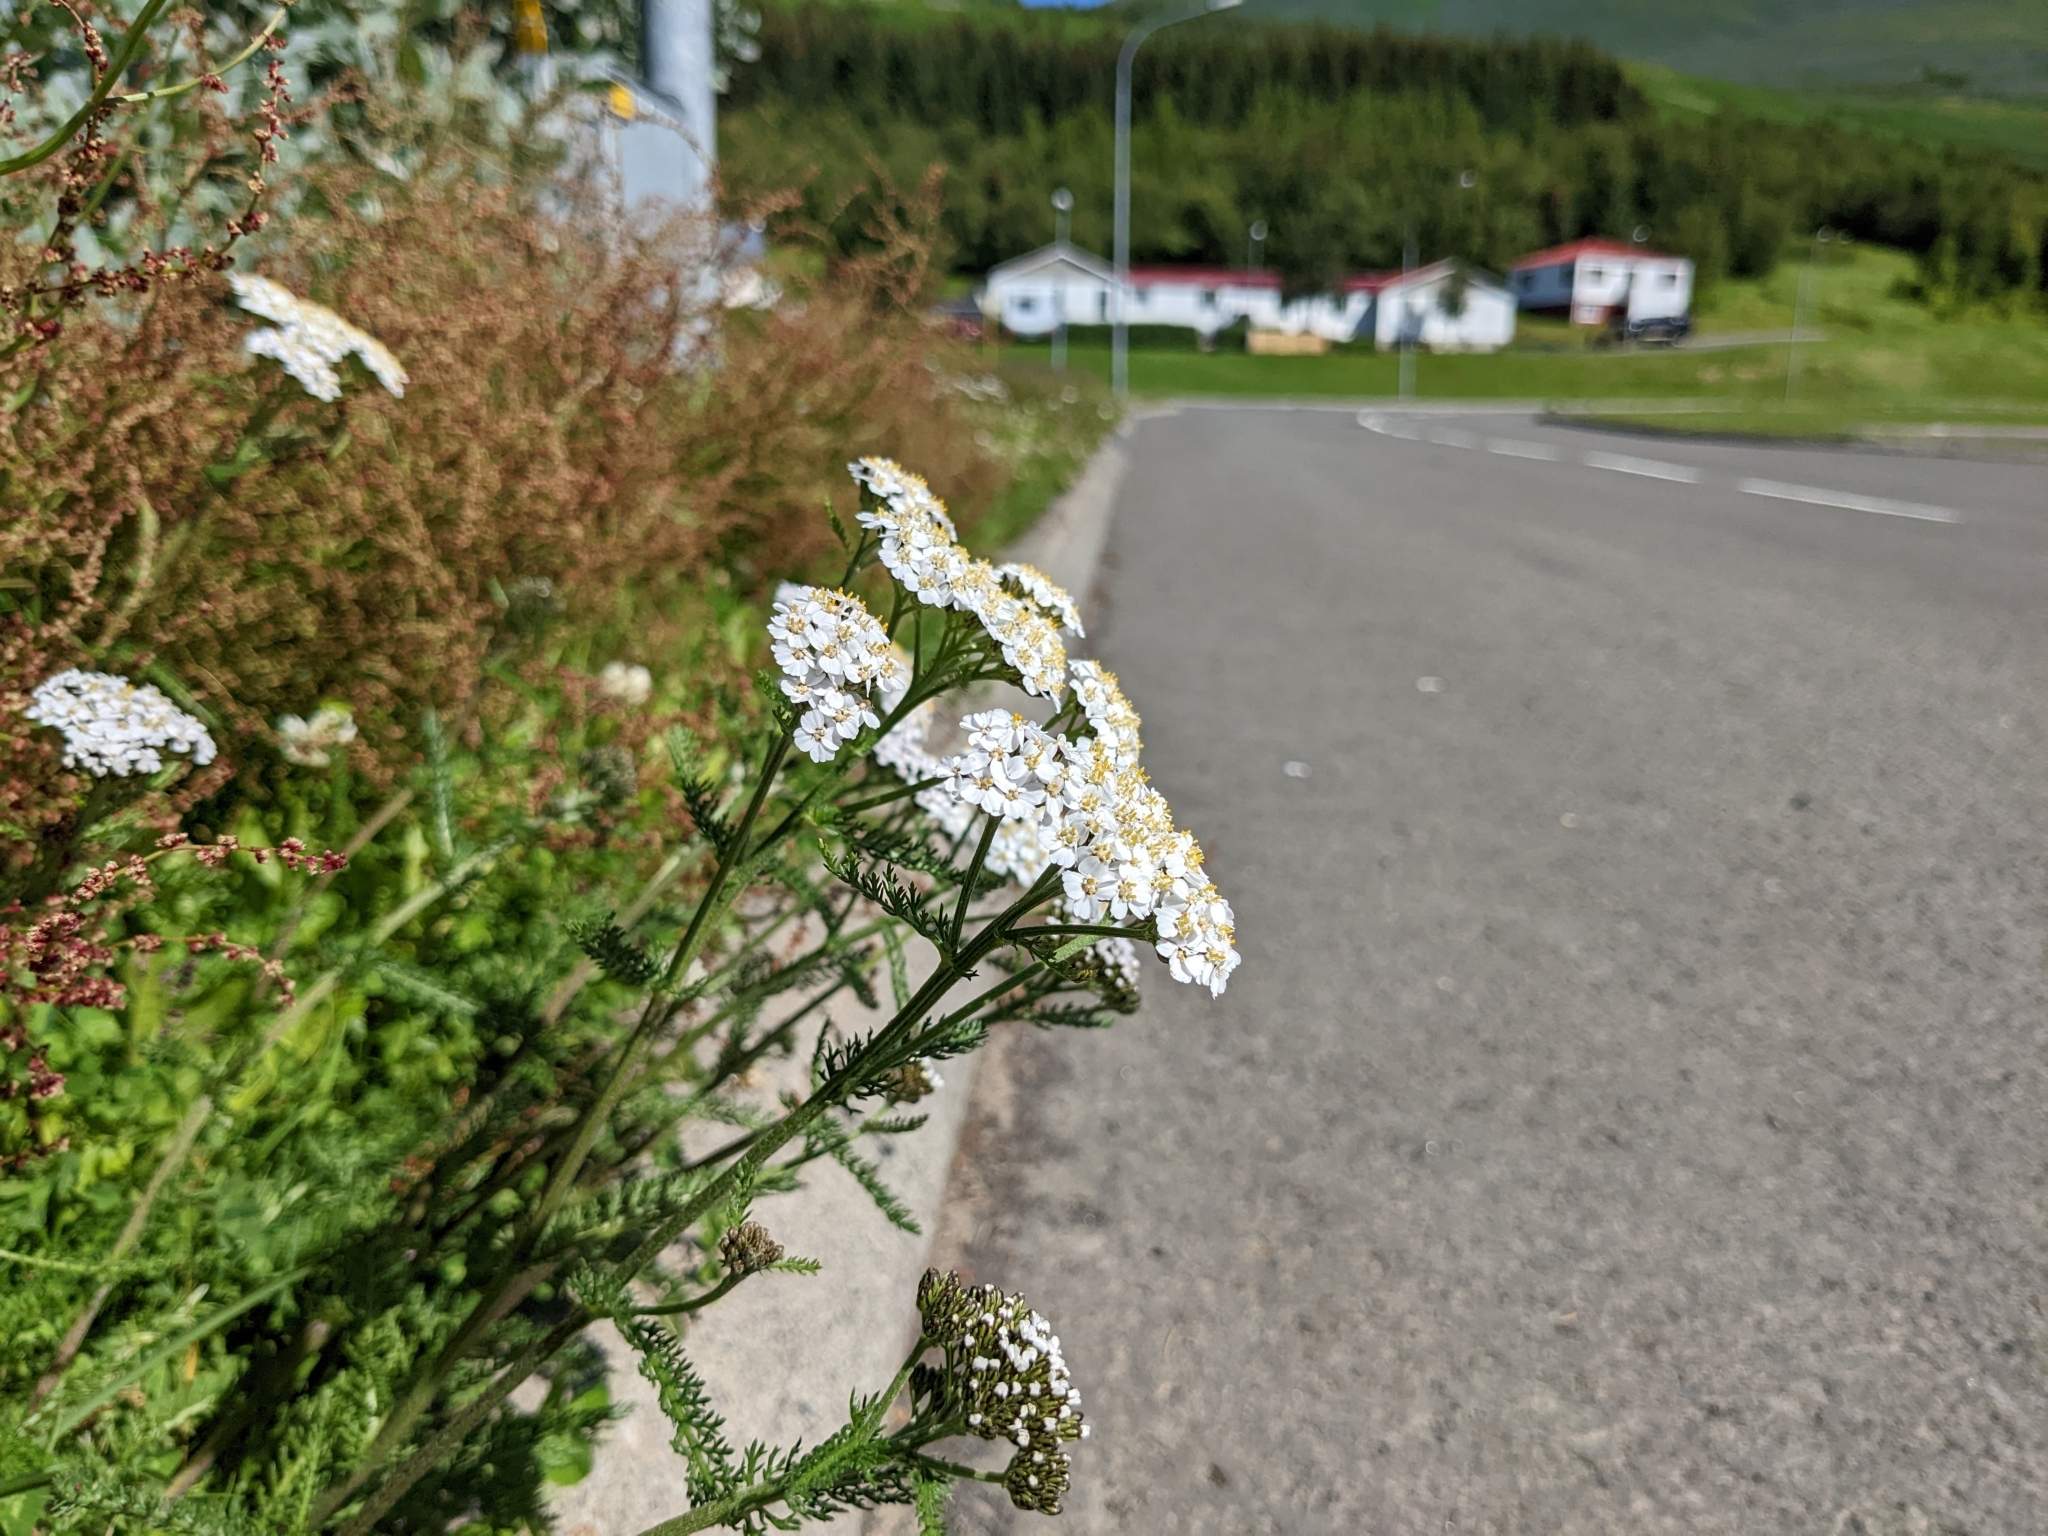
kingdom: Plantae
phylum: Tracheophyta
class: Magnoliopsida
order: Asterales
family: Asteraceae
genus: Achillea
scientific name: Achillea millefolium
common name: Yarrow
